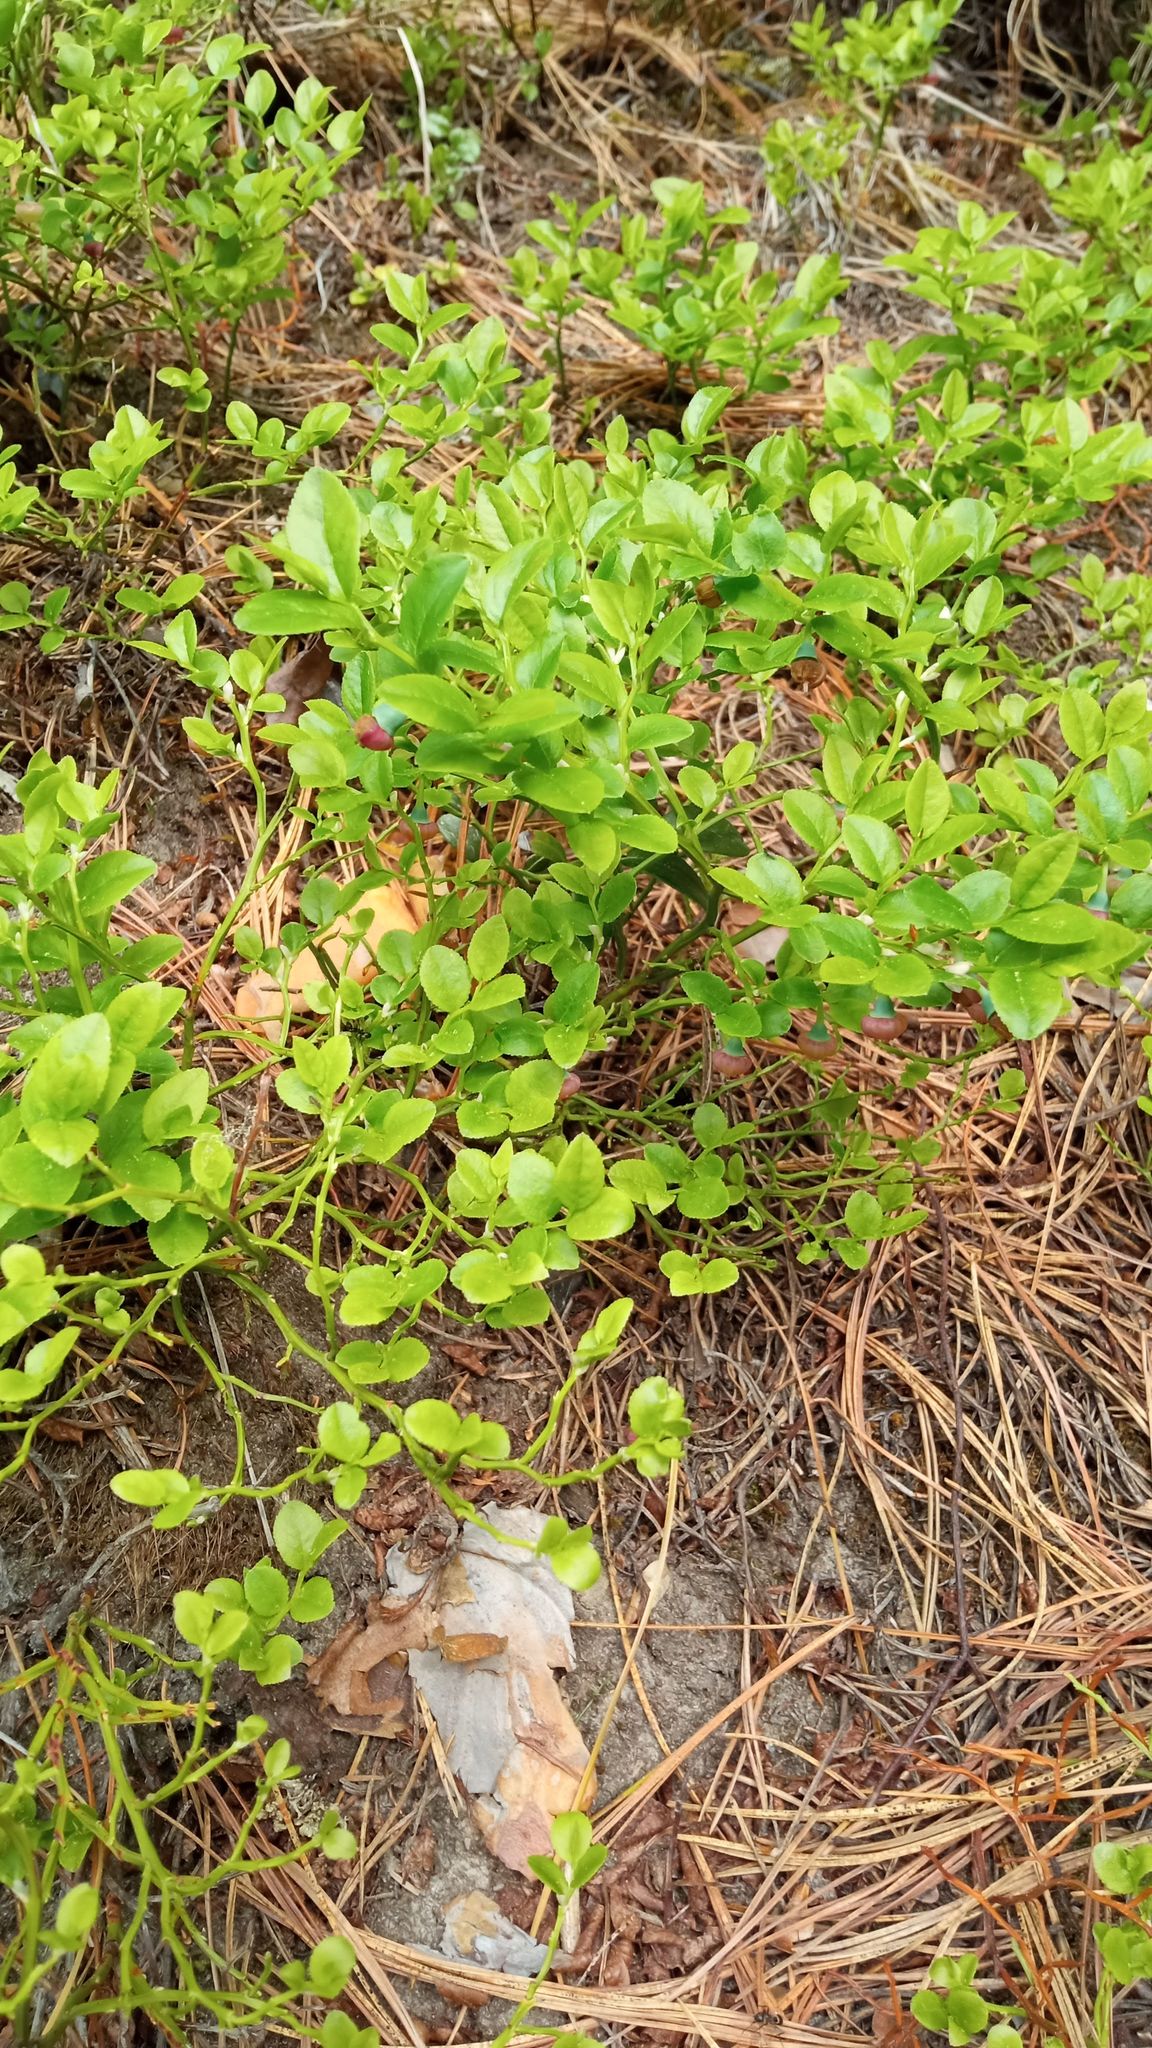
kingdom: Plantae
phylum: Tracheophyta
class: Magnoliopsida
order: Ericales
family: Ericaceae
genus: Vaccinium
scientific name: Vaccinium myrtillus
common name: Bilberry
